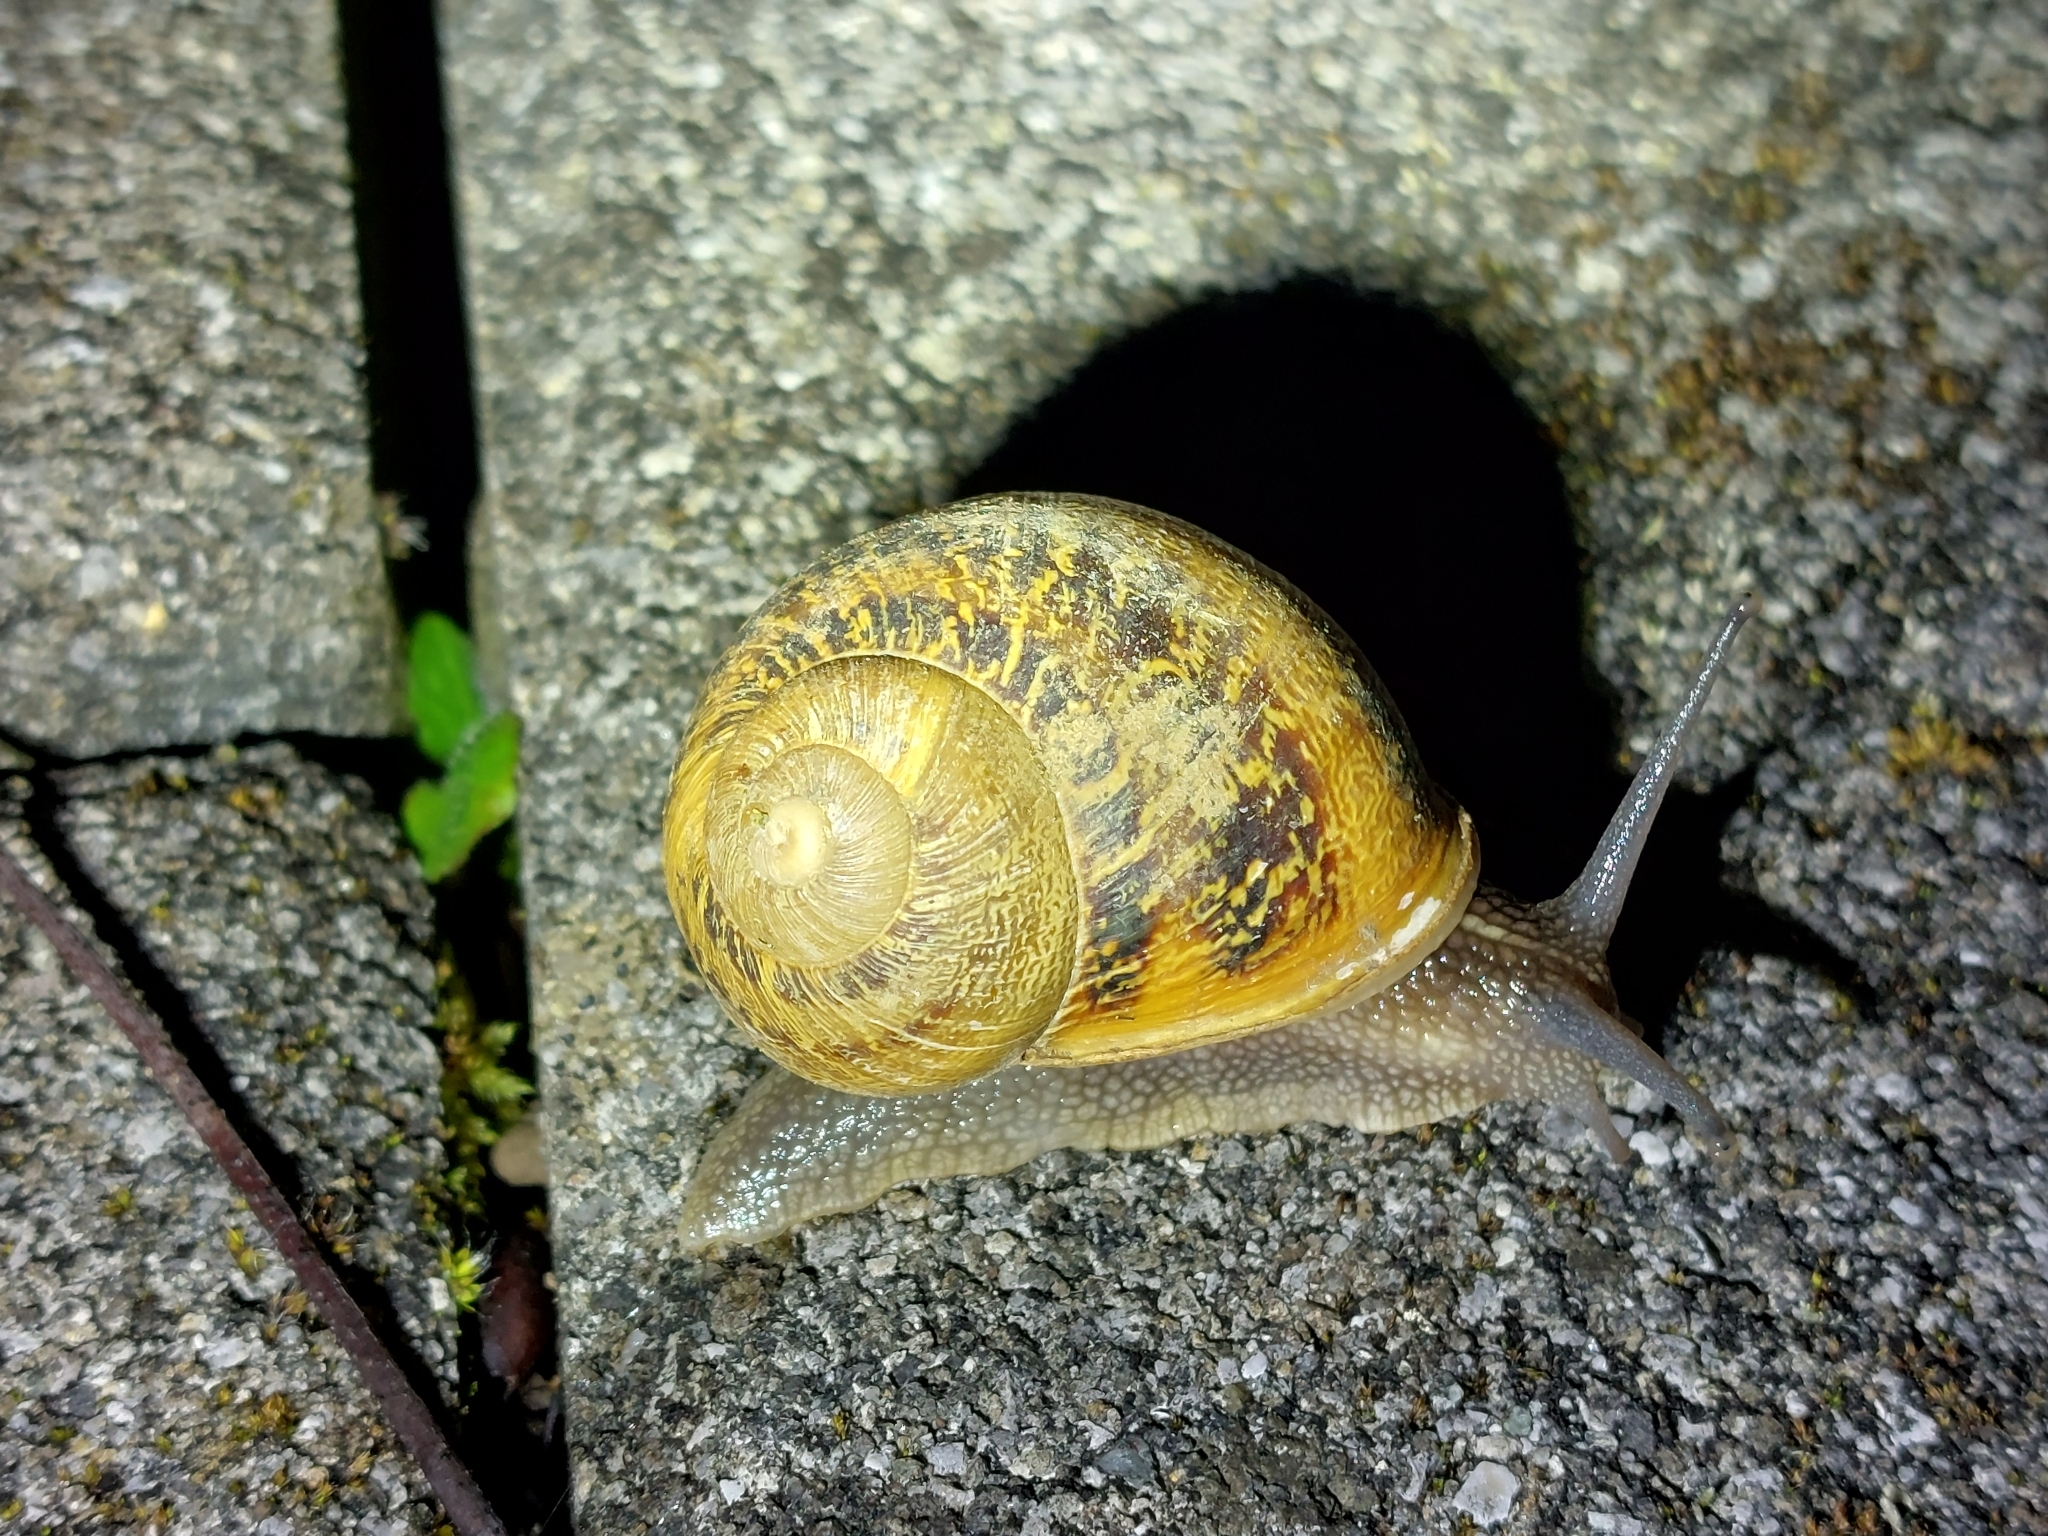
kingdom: Animalia
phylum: Mollusca
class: Gastropoda
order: Stylommatophora
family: Helicidae
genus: Cornu
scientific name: Cornu aspersum
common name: Brown garden snail
